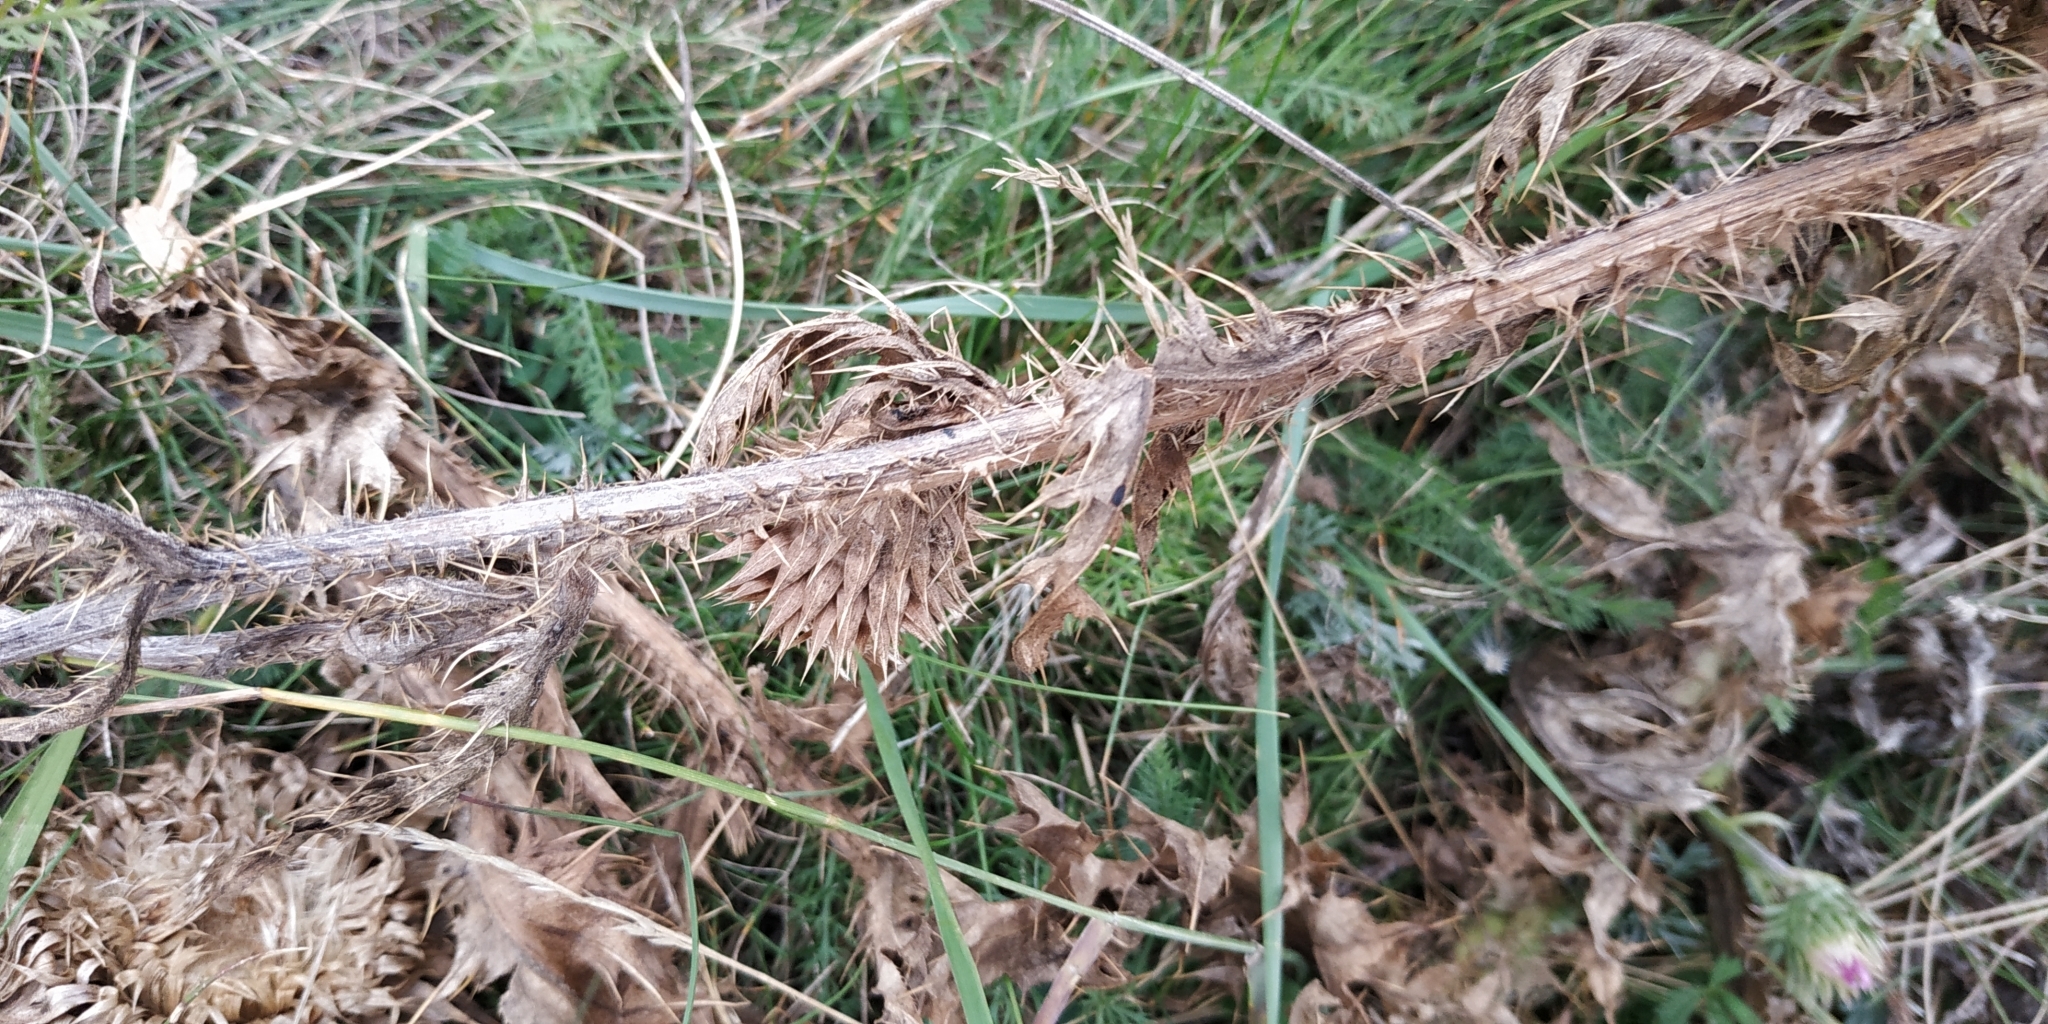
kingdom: Plantae
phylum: Tracheophyta
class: Magnoliopsida
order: Asterales
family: Asteraceae
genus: Carduus
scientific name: Carduus nutans
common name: Musk thistle
